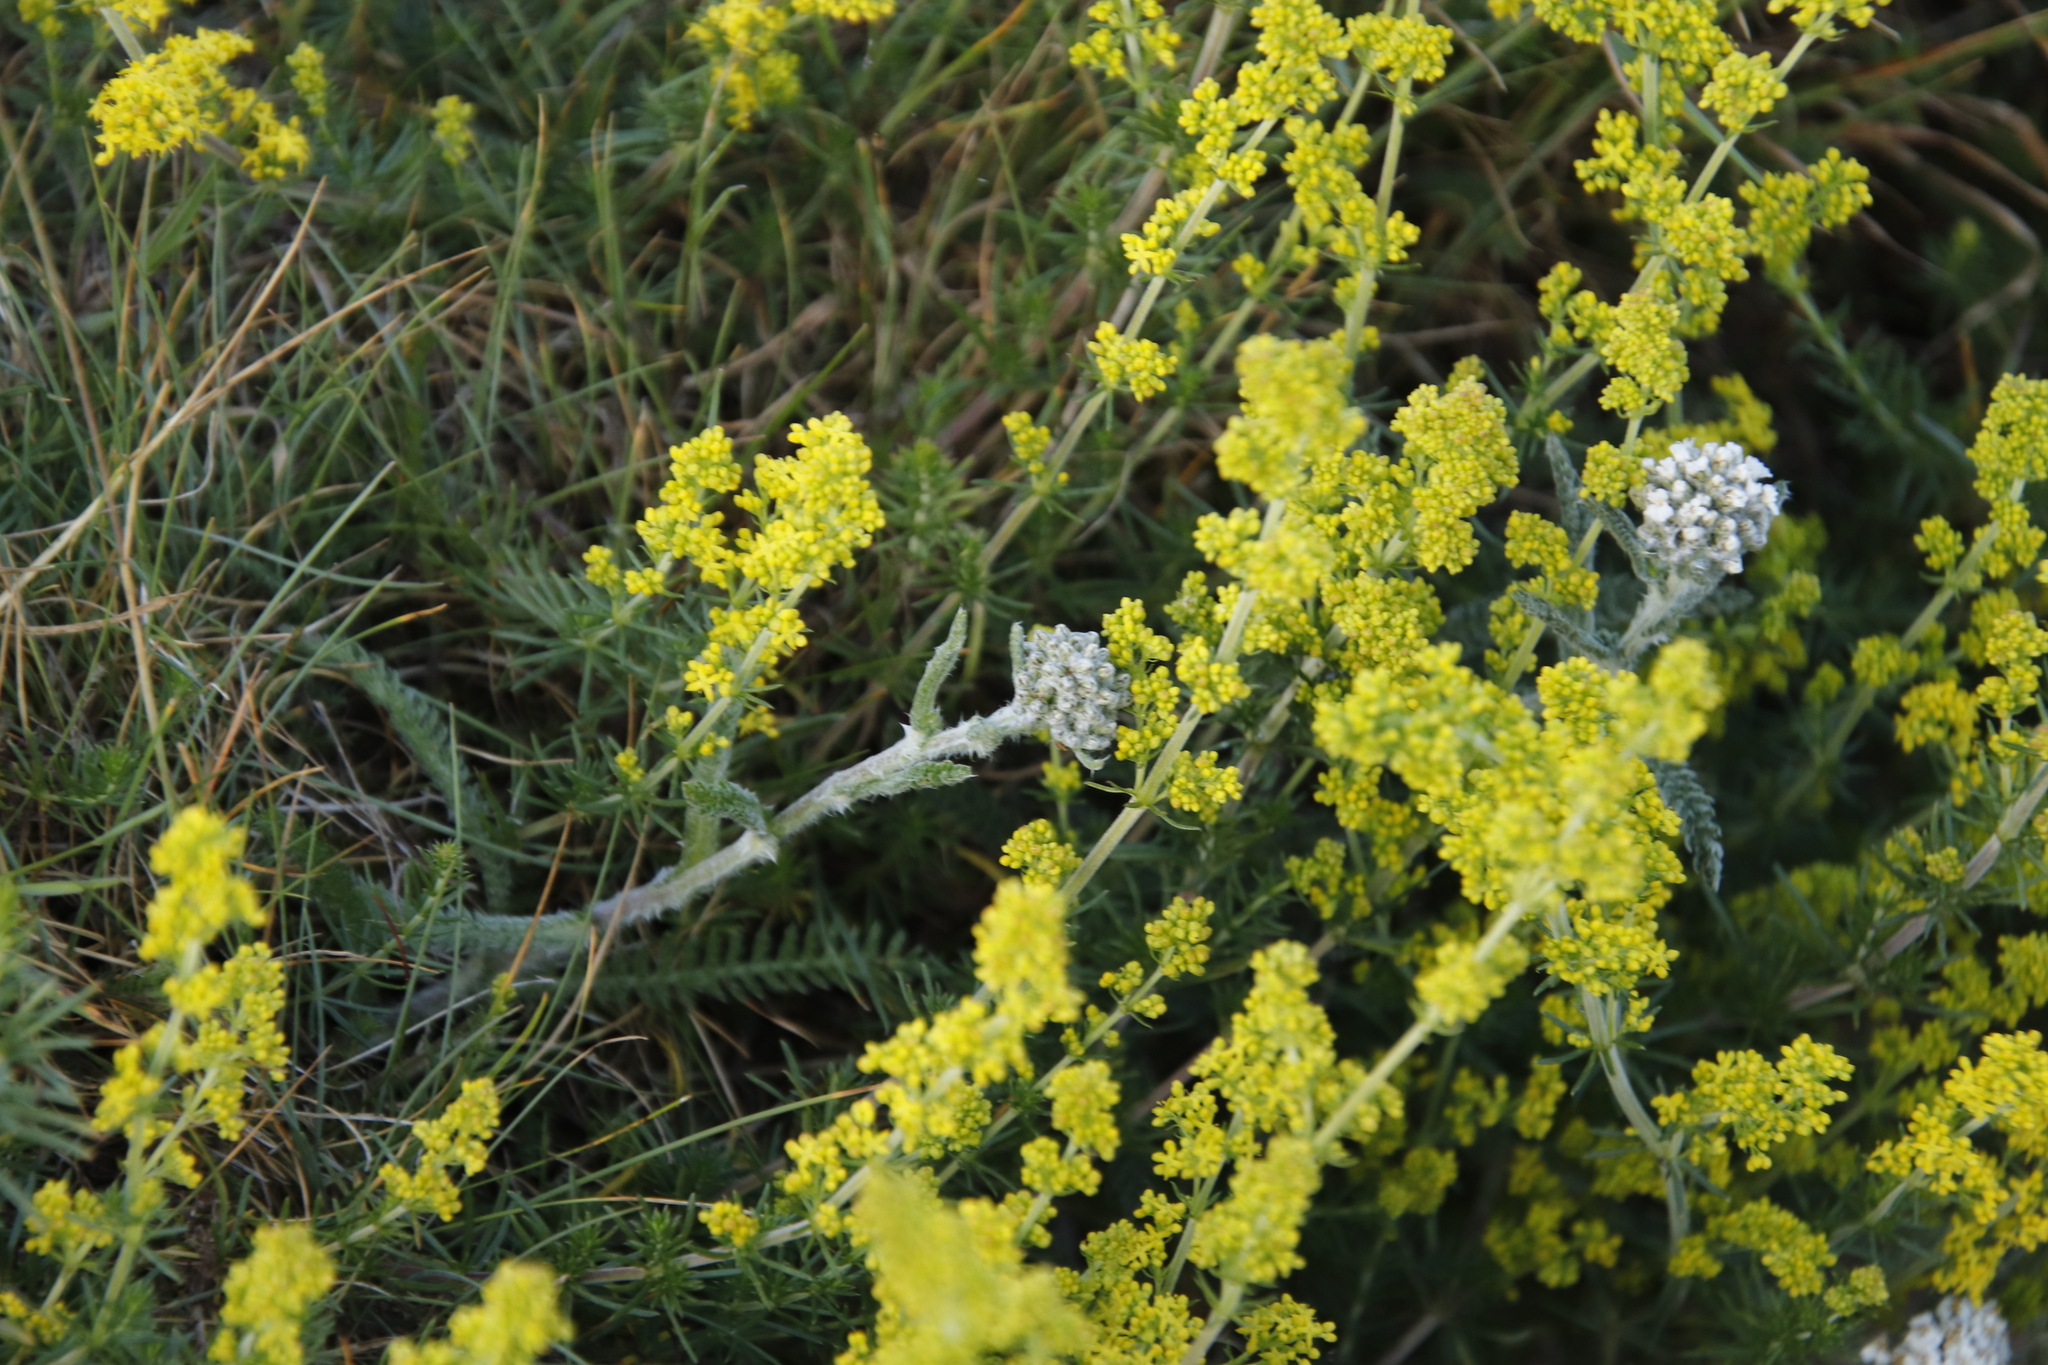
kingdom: Plantae
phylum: Tracheophyta
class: Magnoliopsida
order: Asterales
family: Asteraceae
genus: Achillea
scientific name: Achillea millefolium
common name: Yarrow
